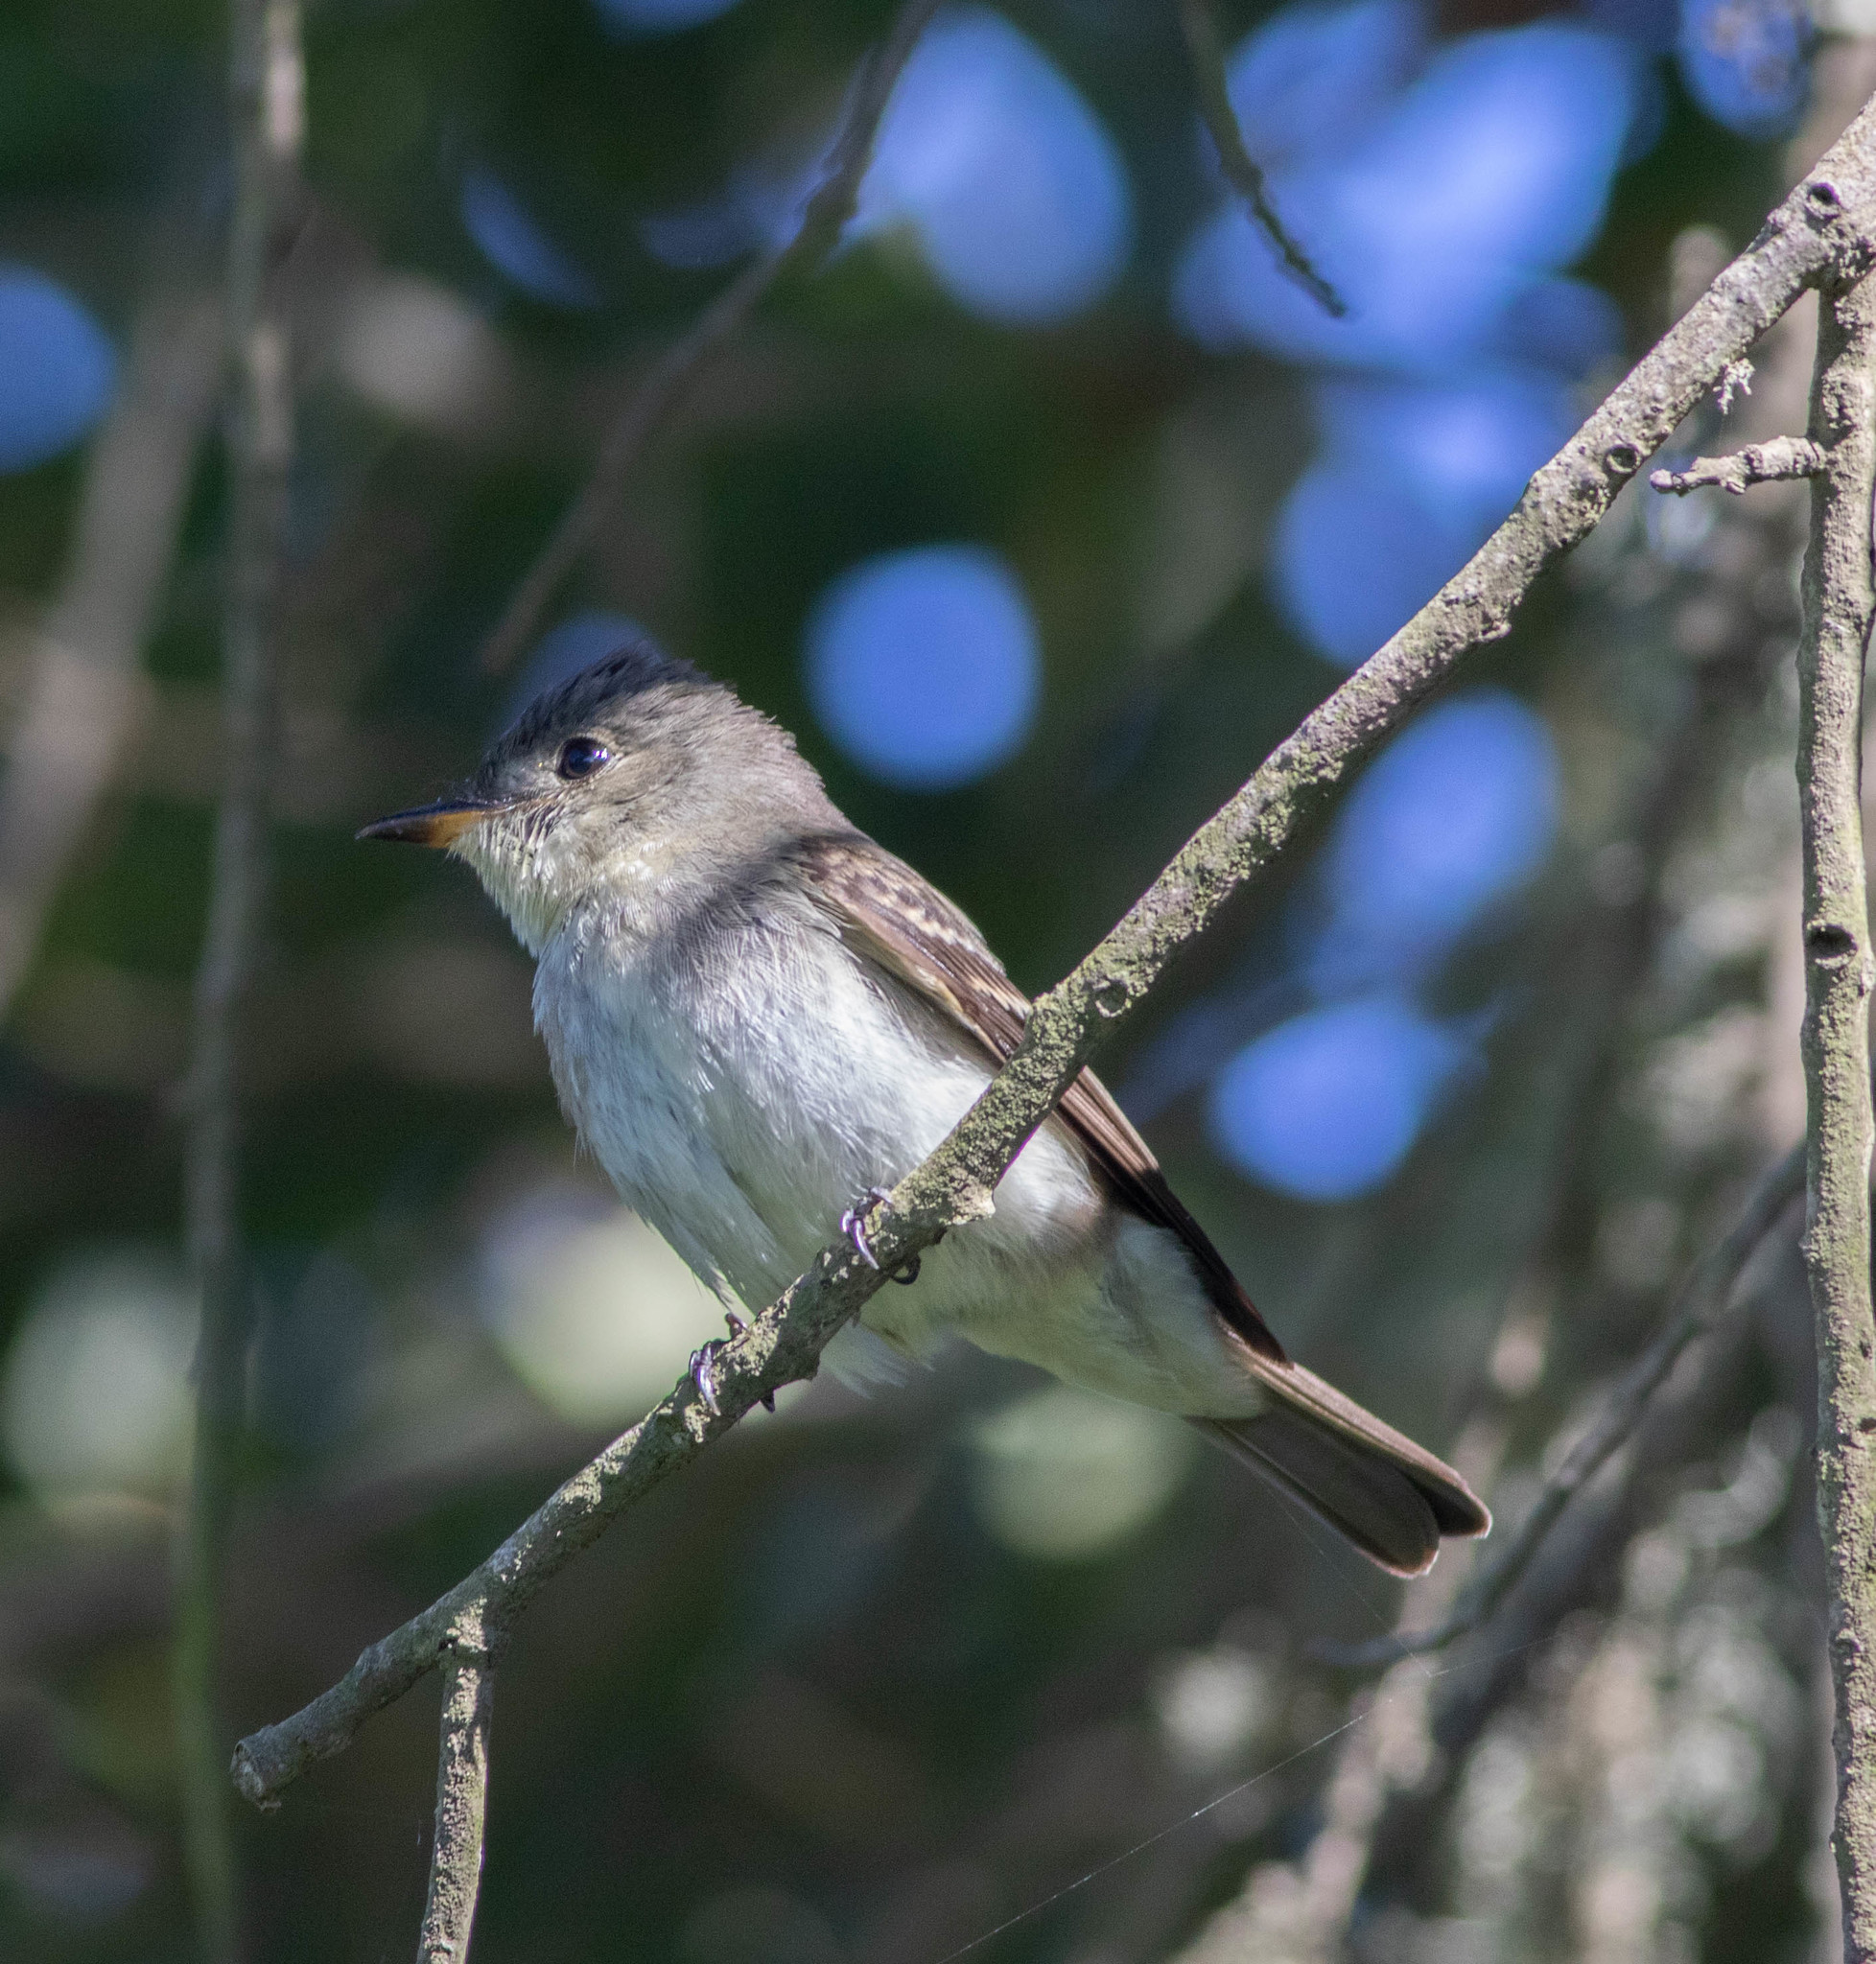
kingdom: Animalia
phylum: Chordata
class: Aves
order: Passeriformes
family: Tyrannidae
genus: Contopus
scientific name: Contopus virens
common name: Eastern wood-pewee
